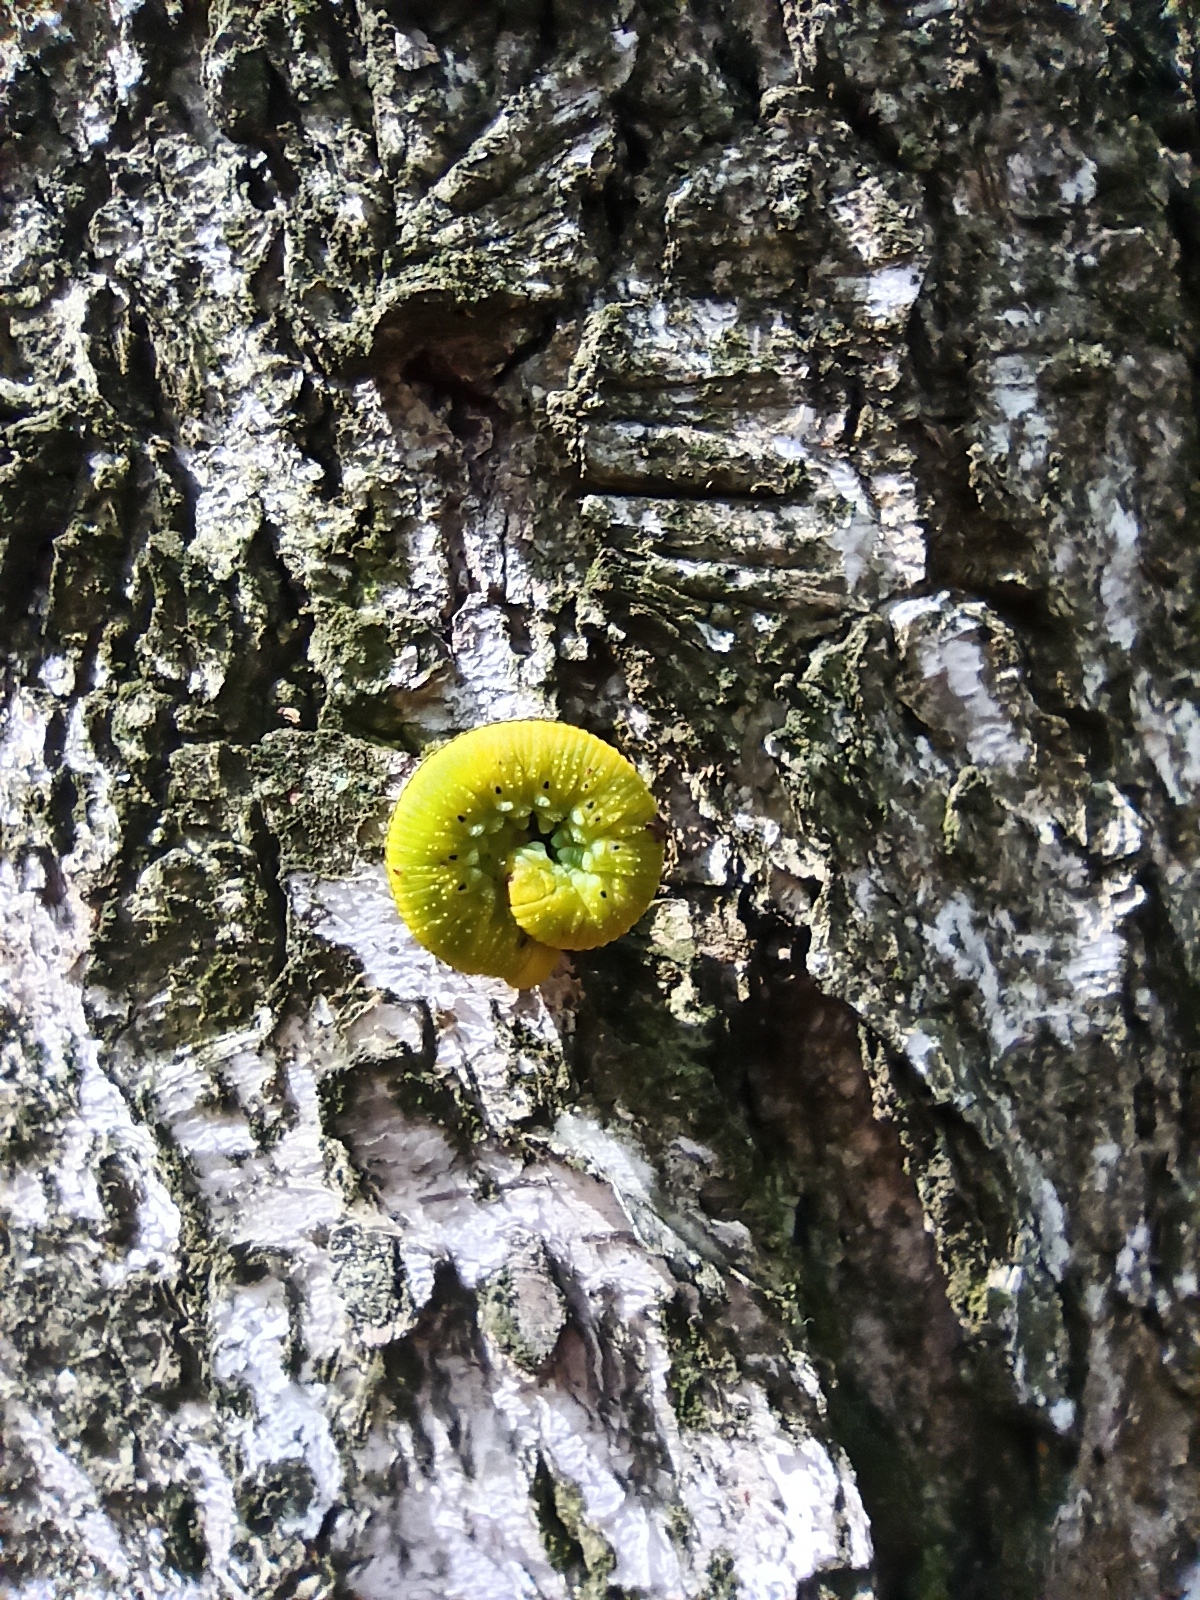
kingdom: Animalia
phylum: Arthropoda
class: Insecta
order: Hymenoptera
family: Cimbicidae
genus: Cimbex
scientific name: Cimbex femoratus
